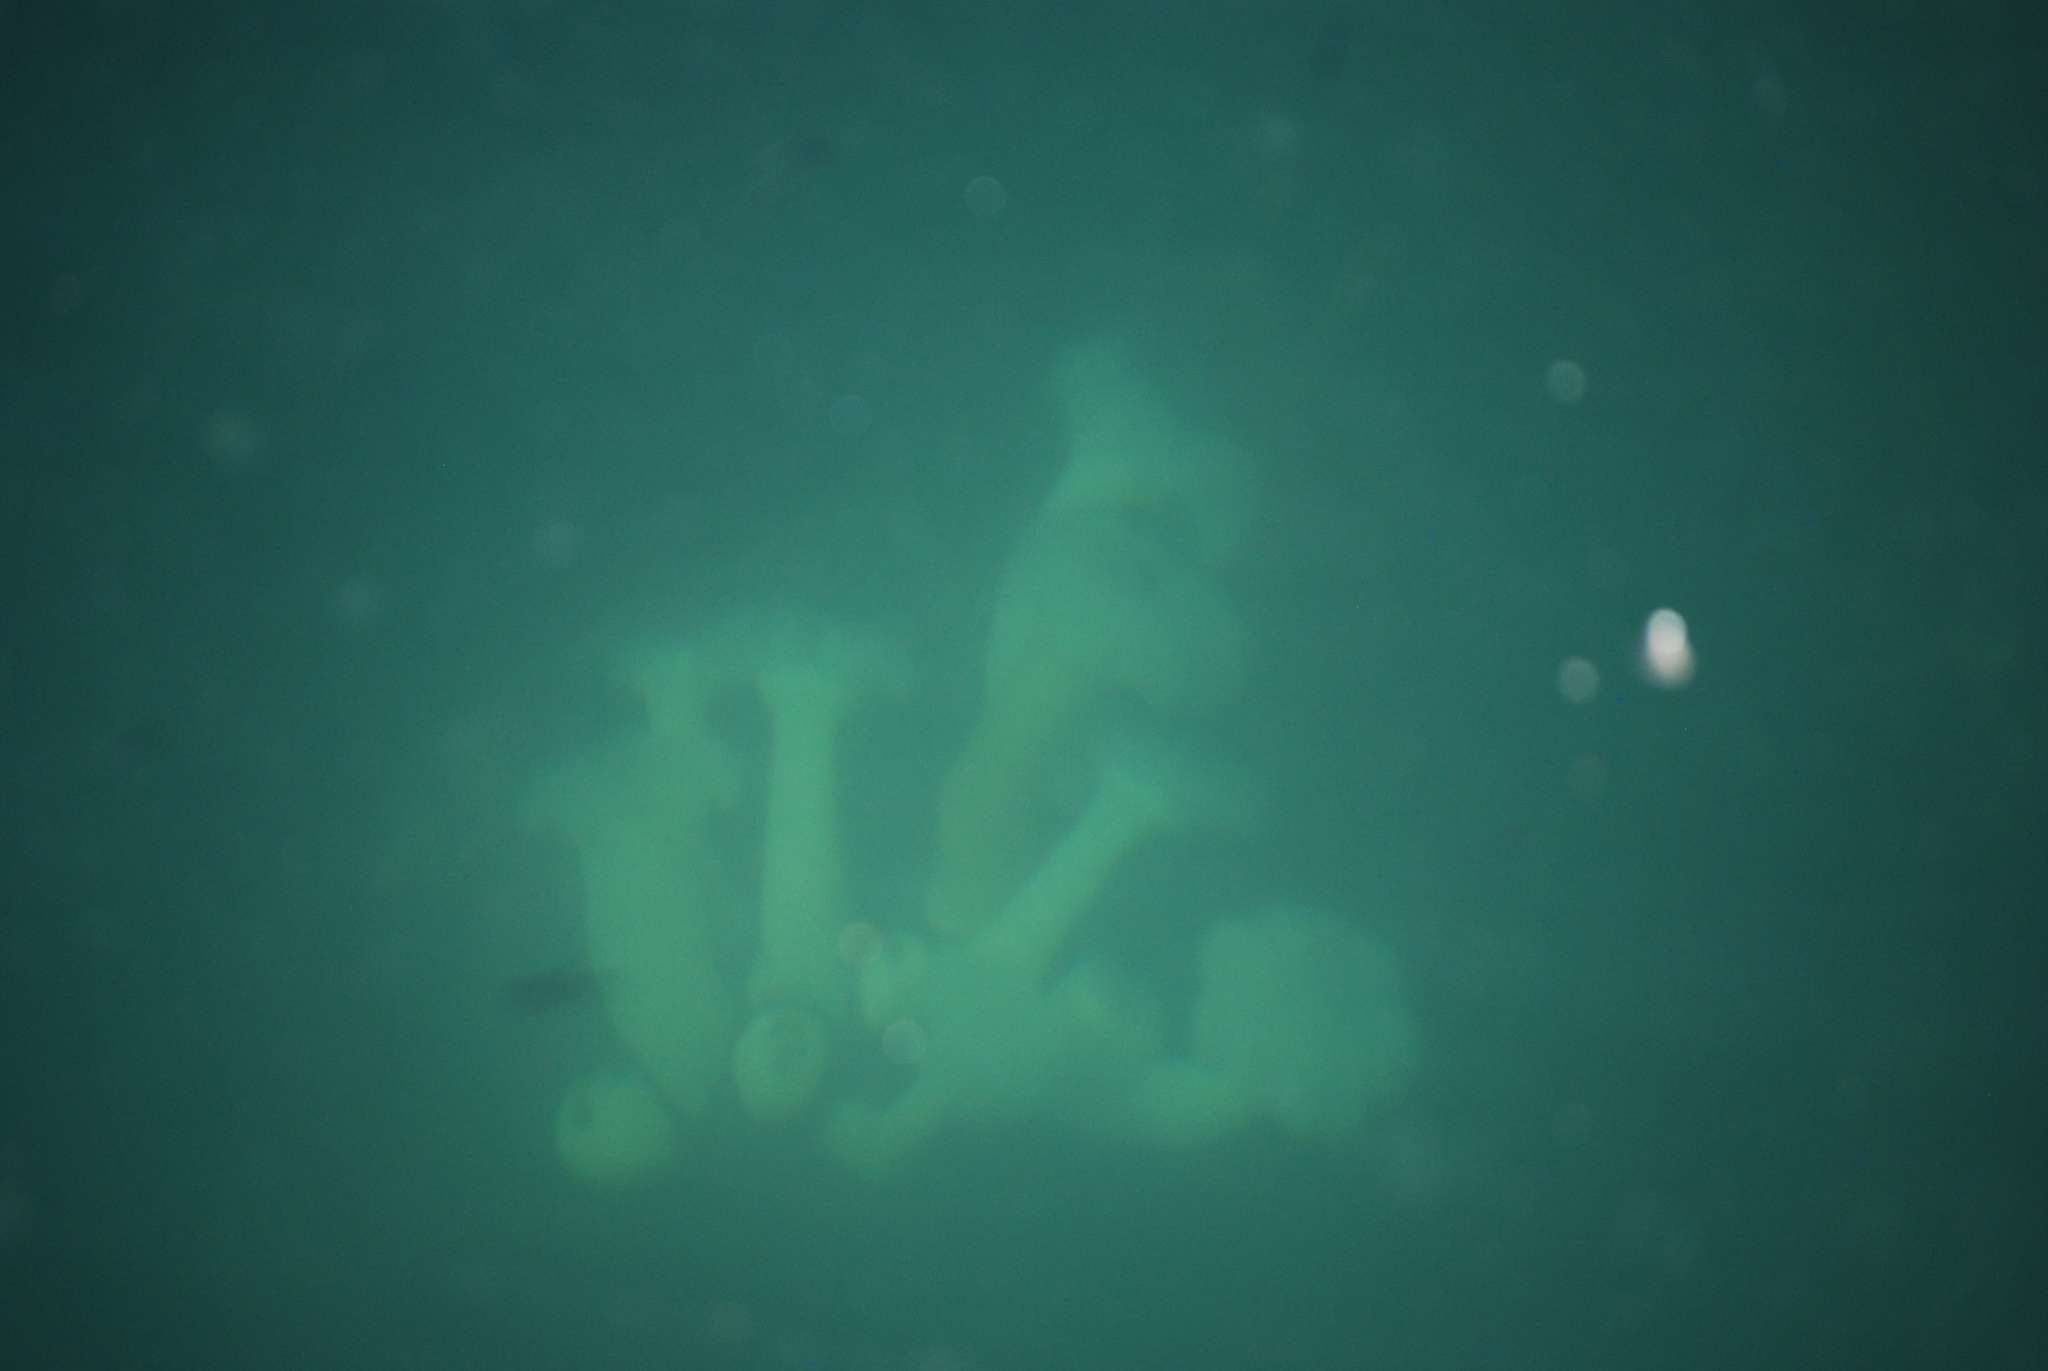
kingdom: Animalia
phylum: Cnidaria
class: Anthozoa
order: Actiniaria
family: Metridiidae
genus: Metridium
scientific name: Metridium farcimen
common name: Gigantic anemone
